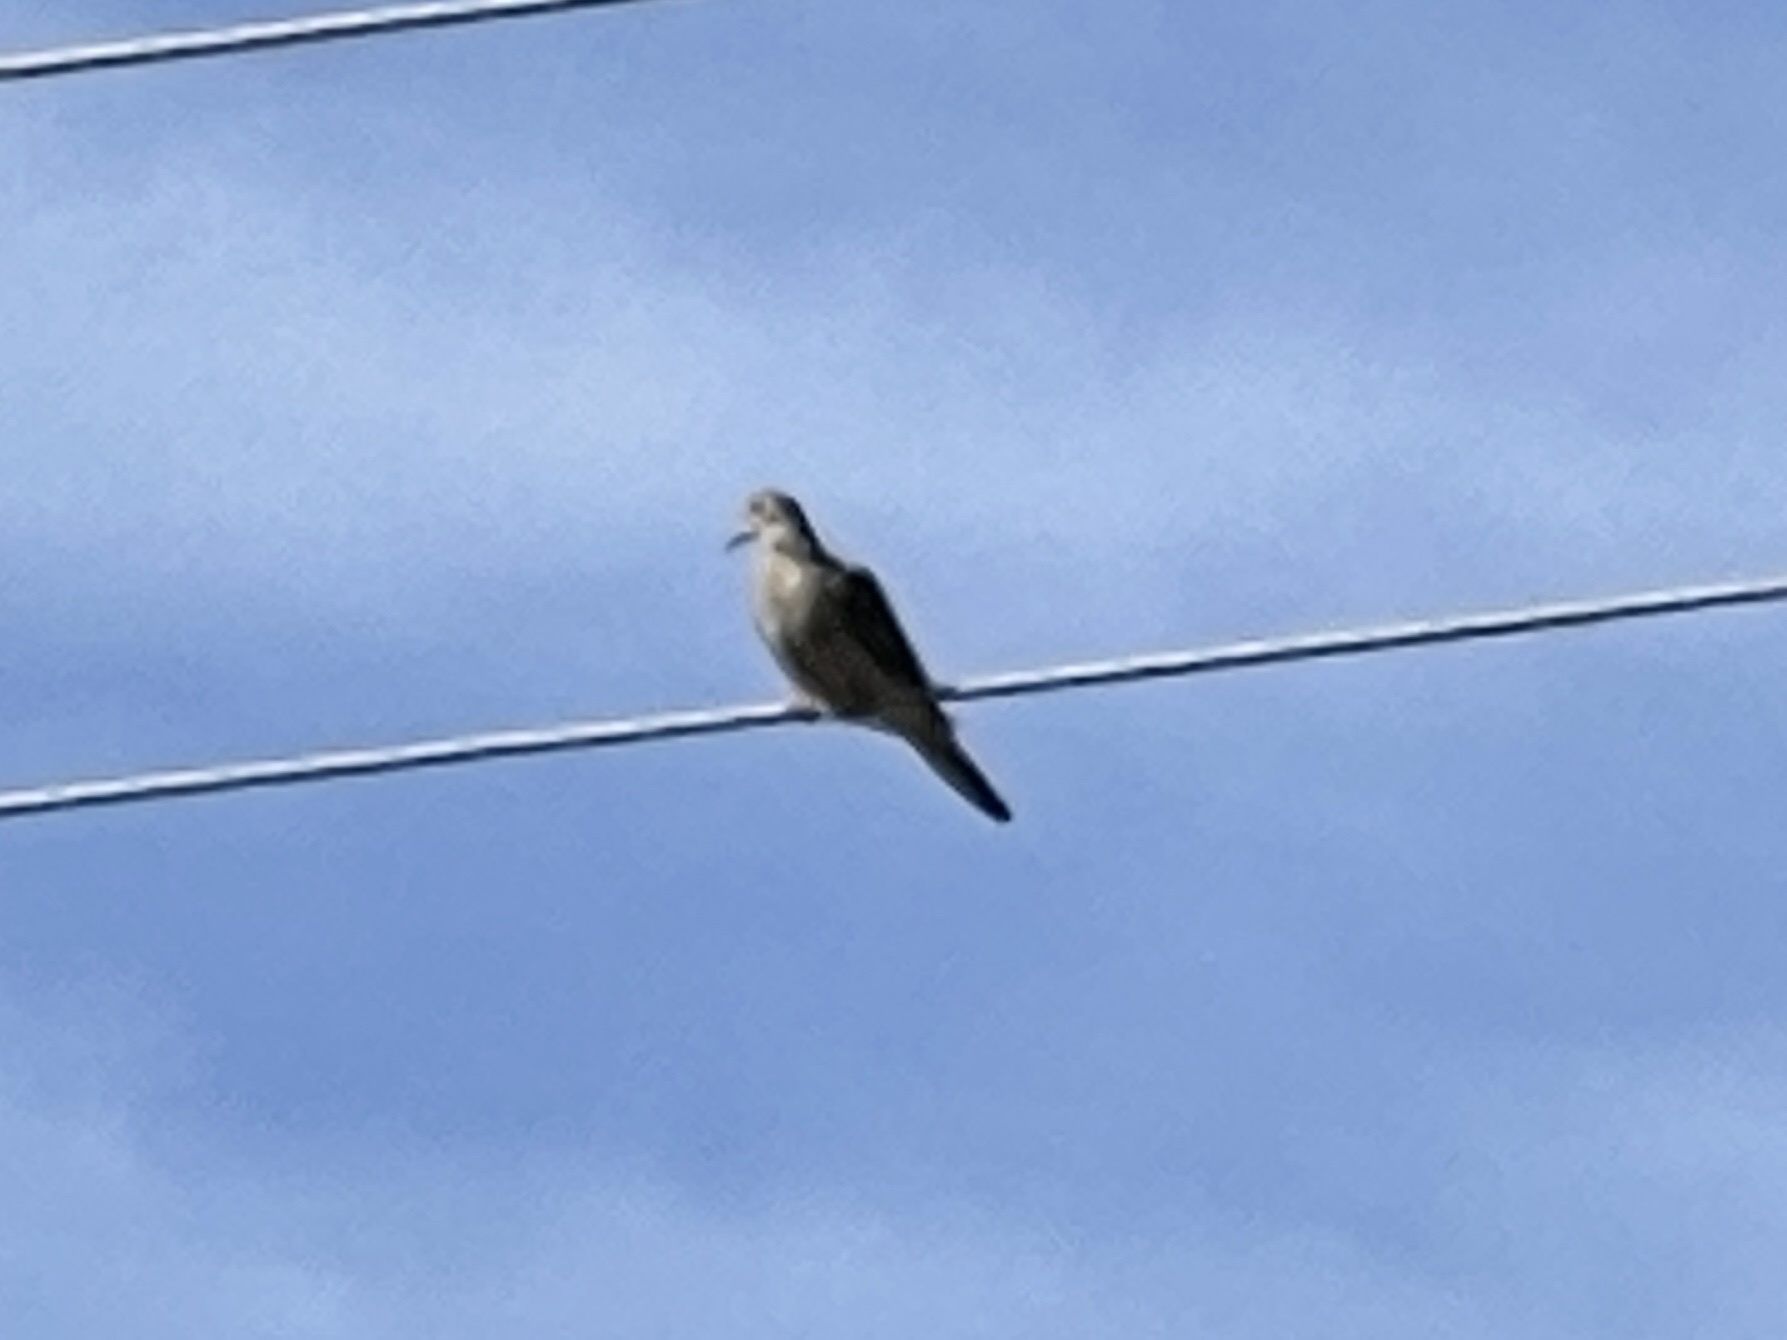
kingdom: Animalia
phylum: Chordata
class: Aves
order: Columbiformes
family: Columbidae
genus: Zenaida
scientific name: Zenaida macroura
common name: Mourning dove
